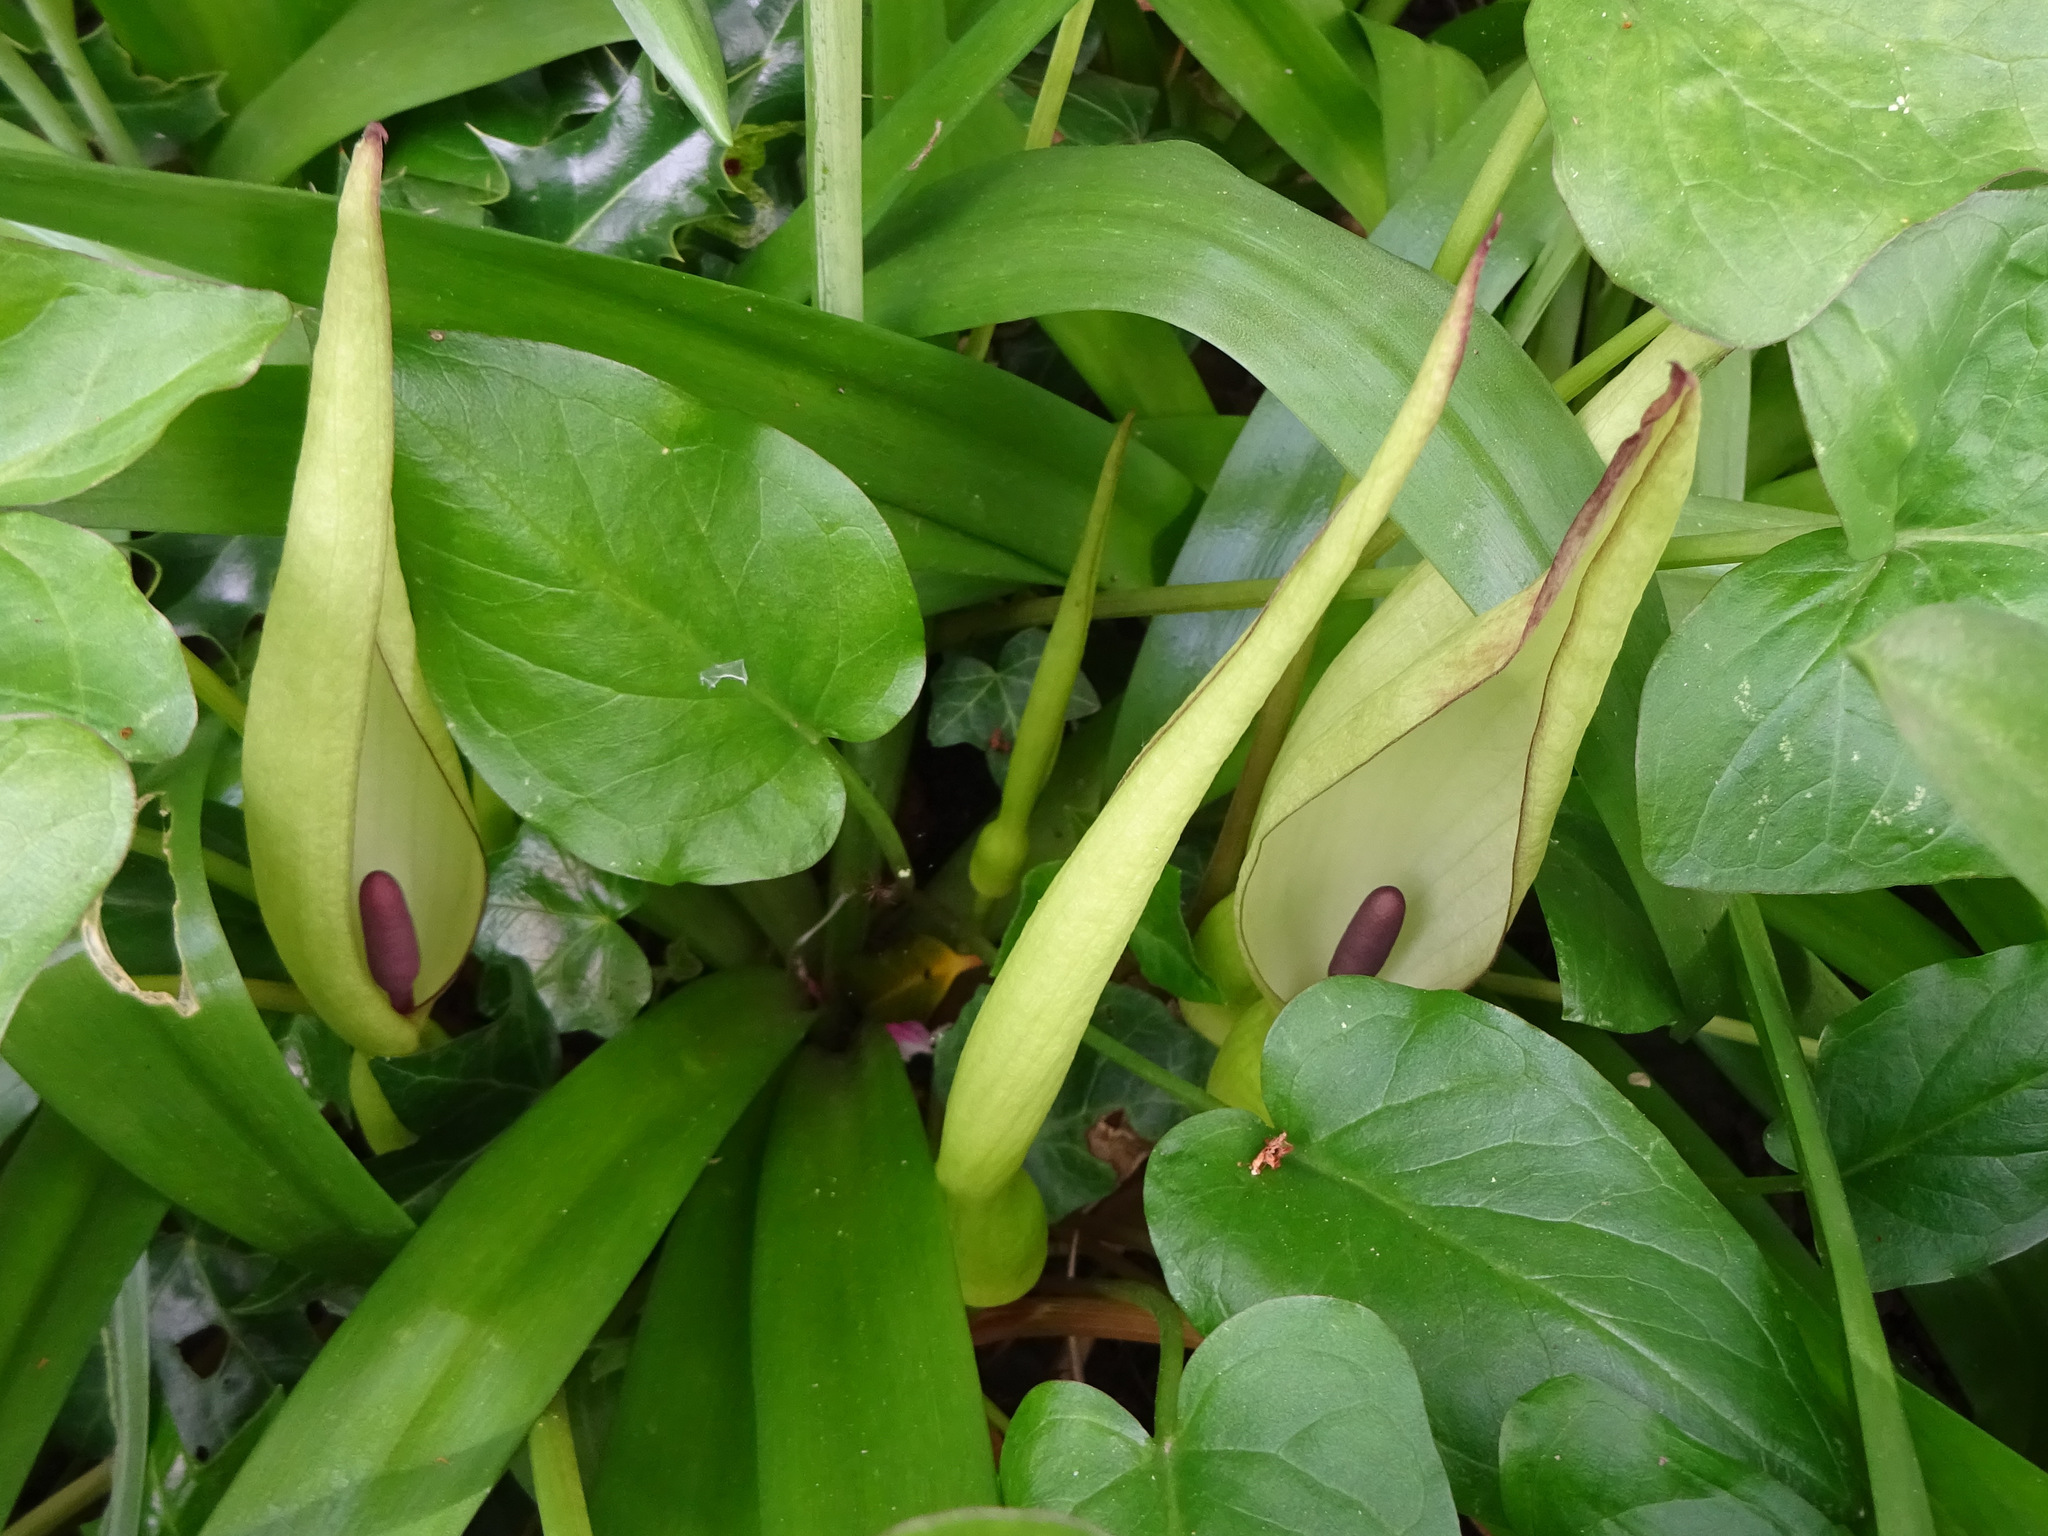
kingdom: Plantae
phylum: Tracheophyta
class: Liliopsida
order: Alismatales
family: Araceae
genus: Arum
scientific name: Arum maculatum
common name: Lords-and-ladies
